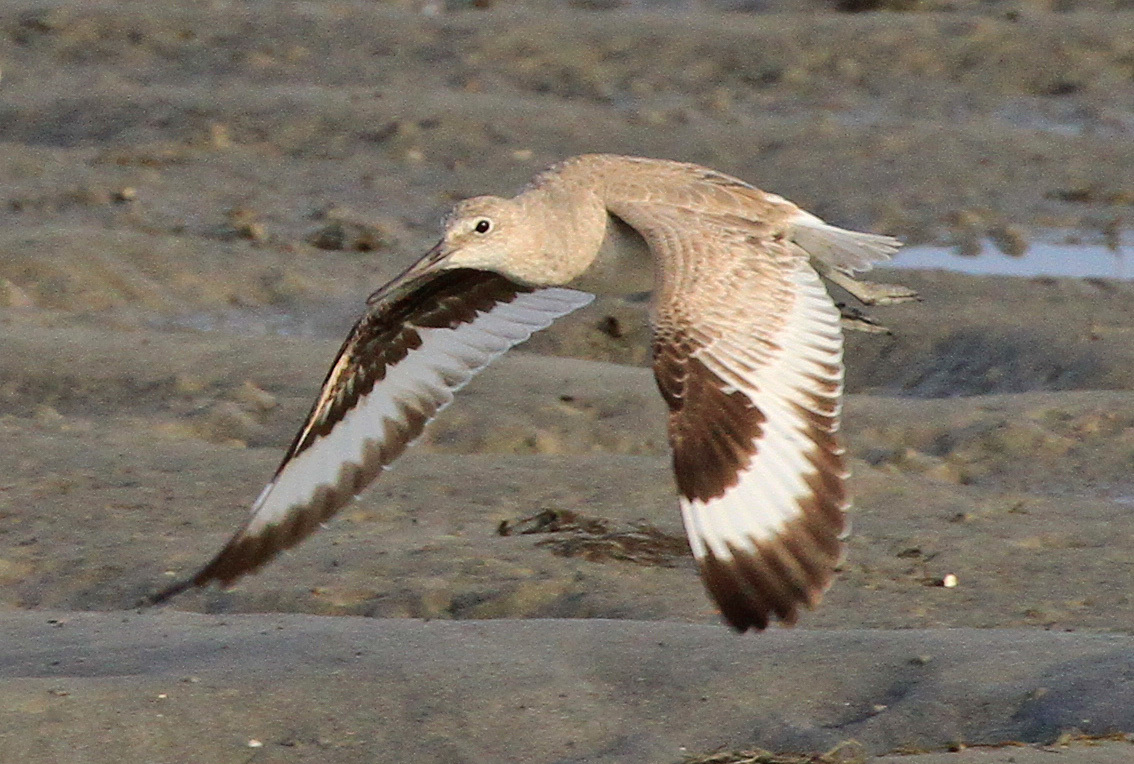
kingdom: Animalia
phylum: Chordata
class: Aves
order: Charadriiformes
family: Scolopacidae
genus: Tringa
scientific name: Tringa semipalmata
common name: Willet
